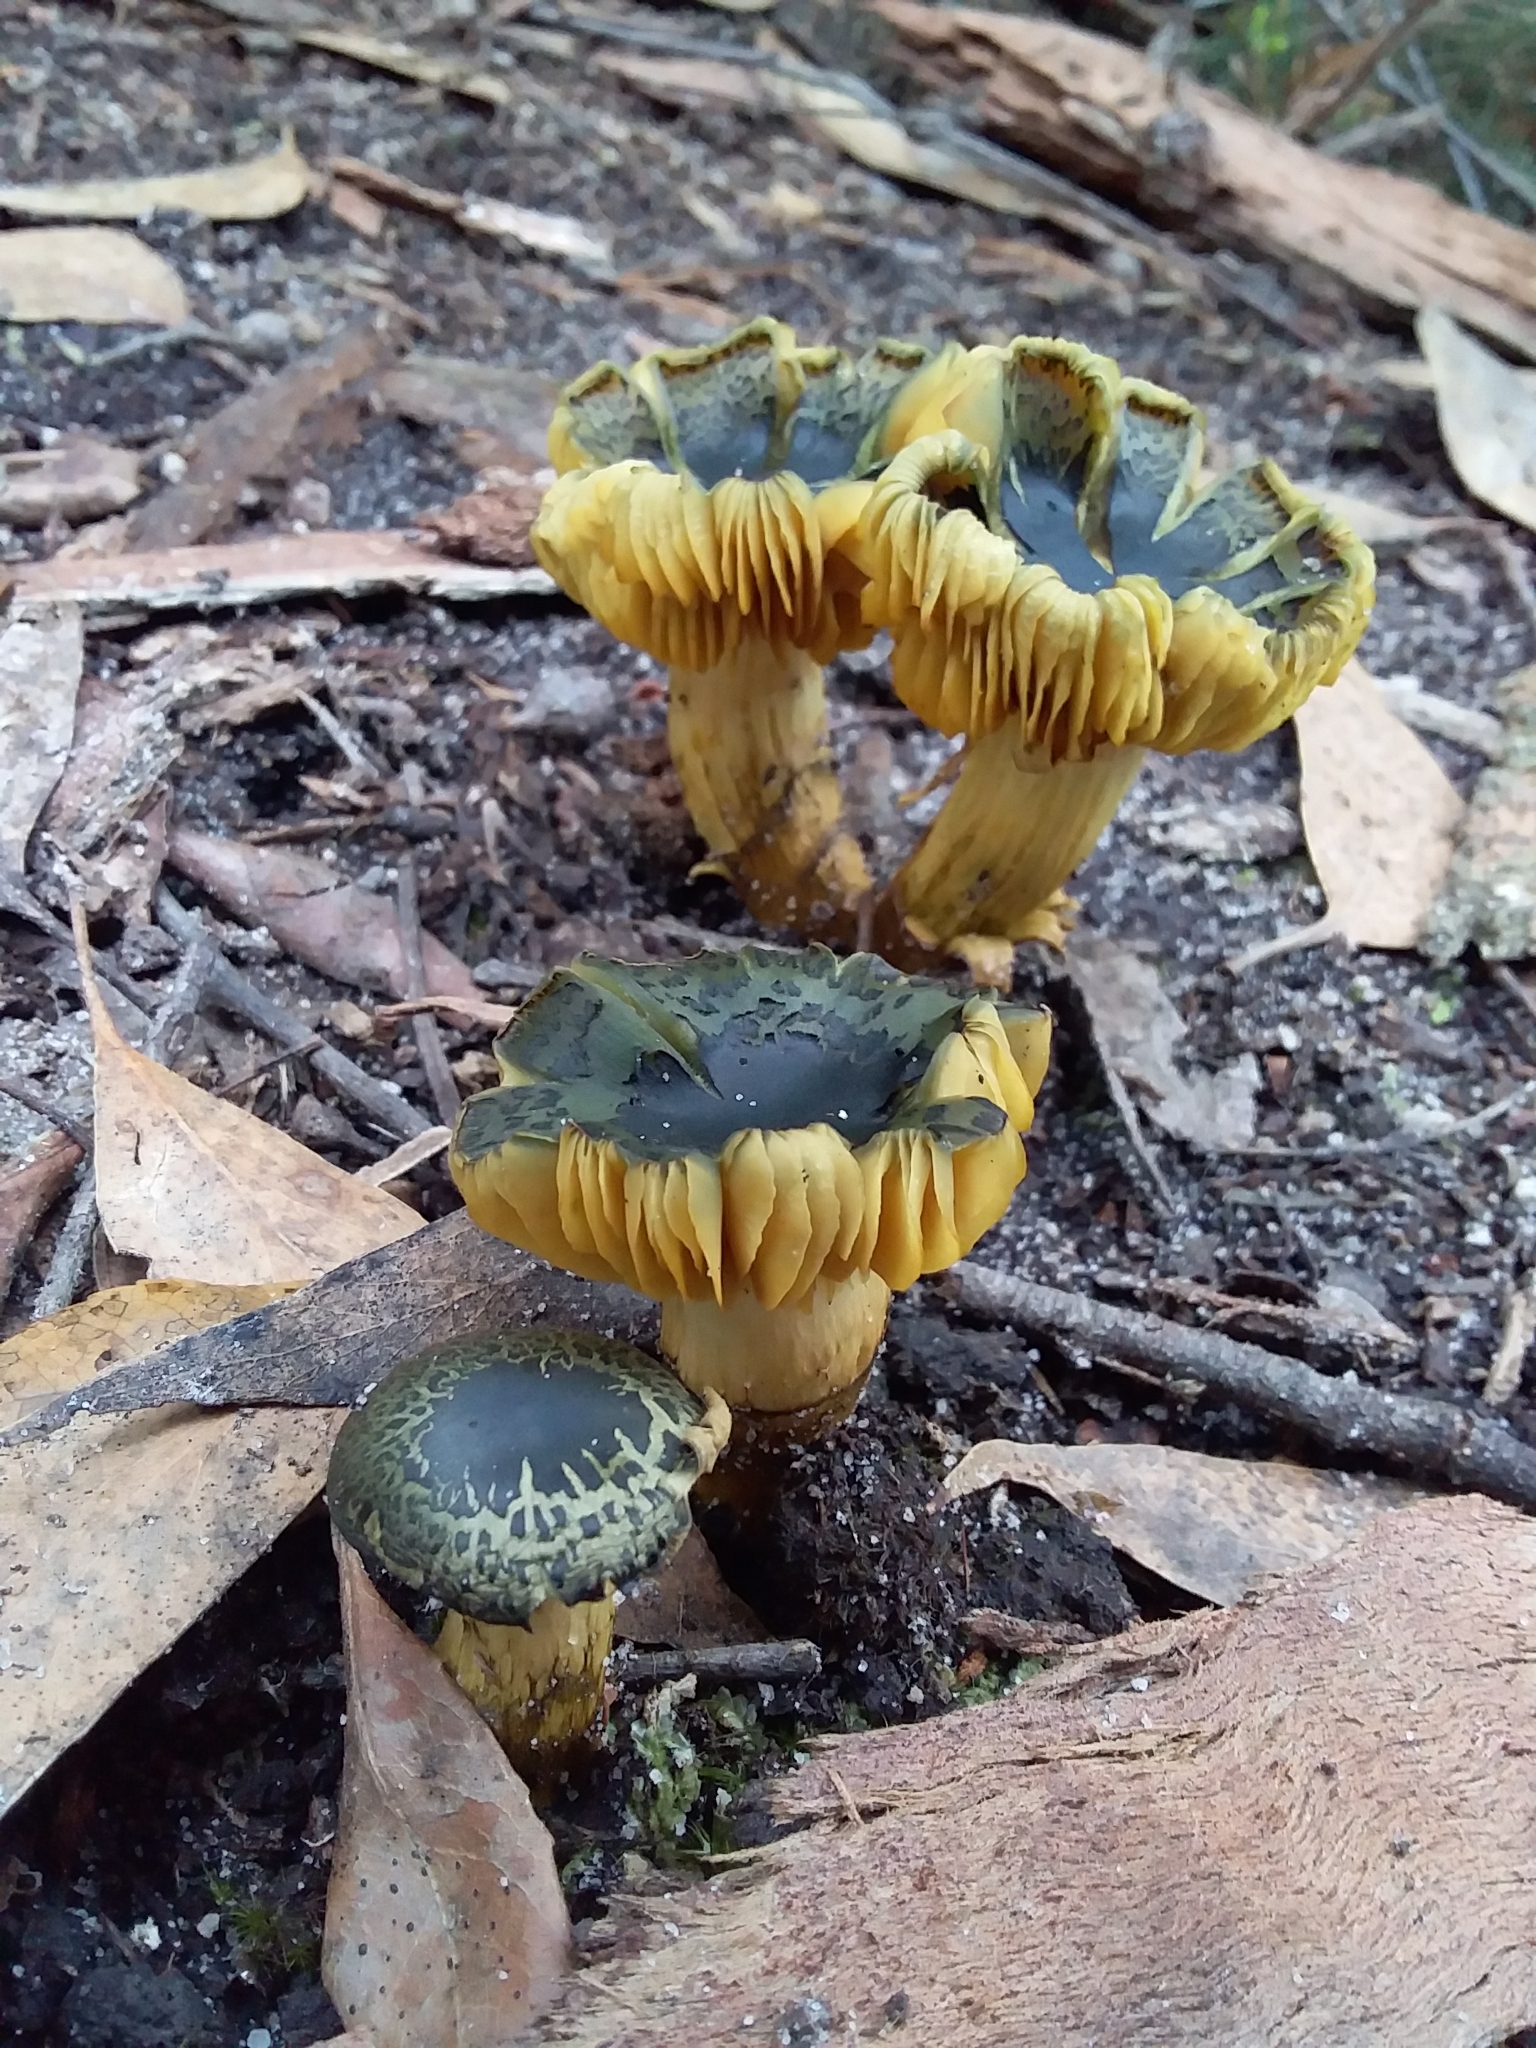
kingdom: Fungi
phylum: Basidiomycota
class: Agaricomycetes
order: Agaricales
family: Cortinariaceae
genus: Cortinarius
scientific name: Cortinarius austrovenetus
